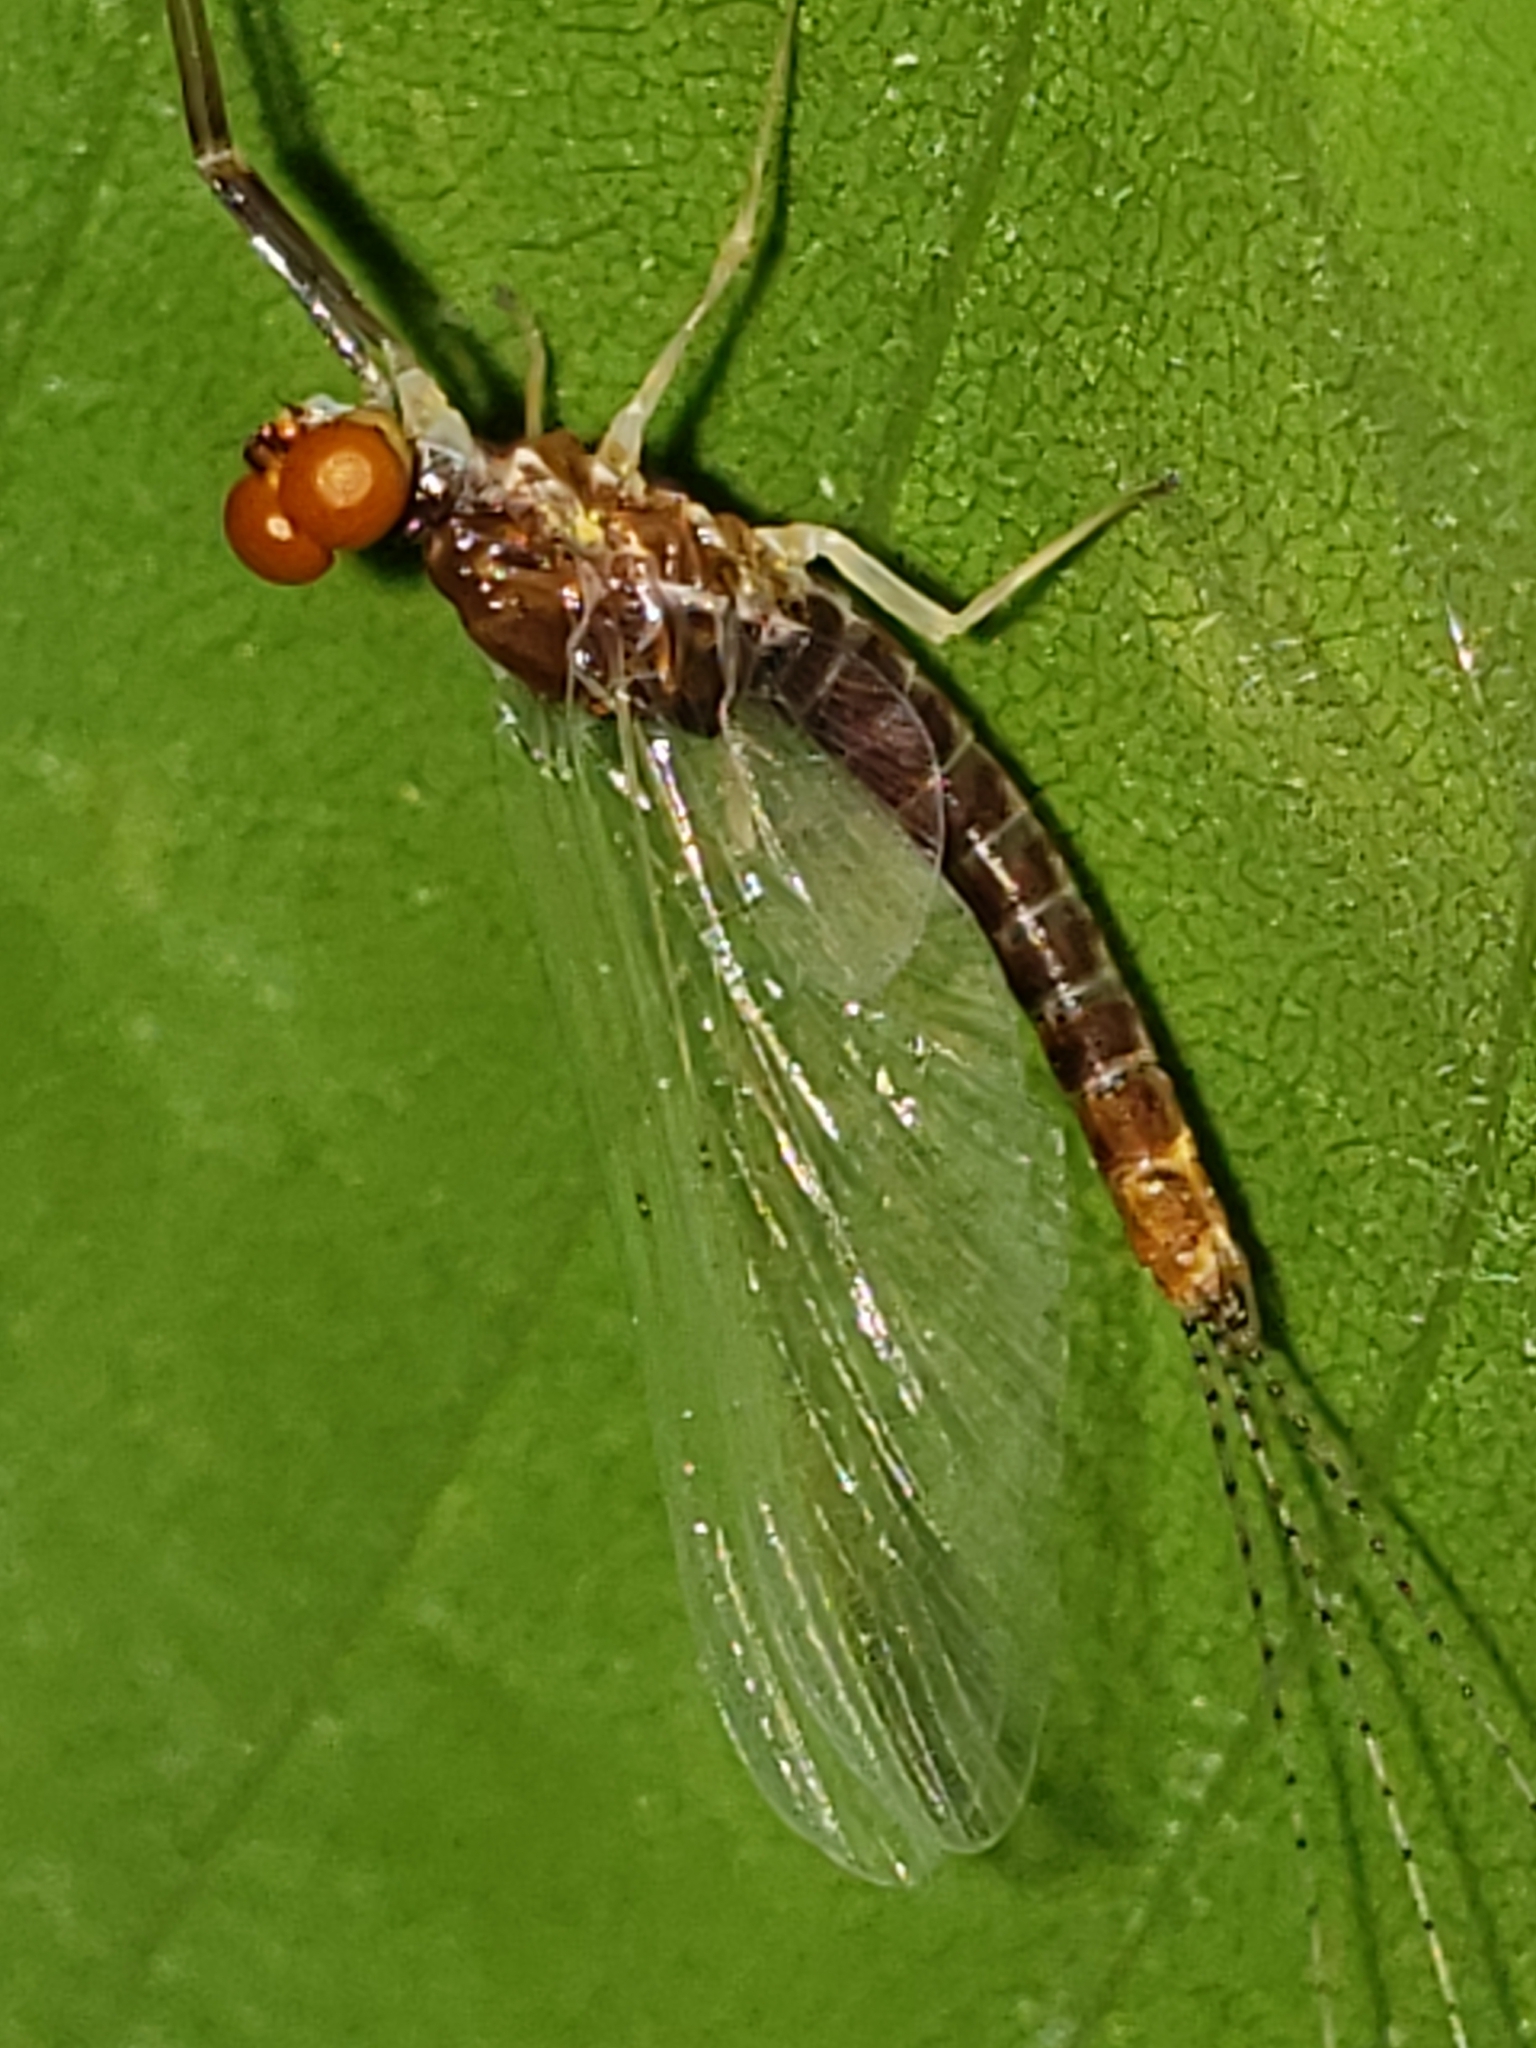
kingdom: Animalia
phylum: Arthropoda
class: Insecta
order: Ephemeroptera
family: Ephemerellidae
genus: Ephemerella
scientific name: Ephemerella needhami
